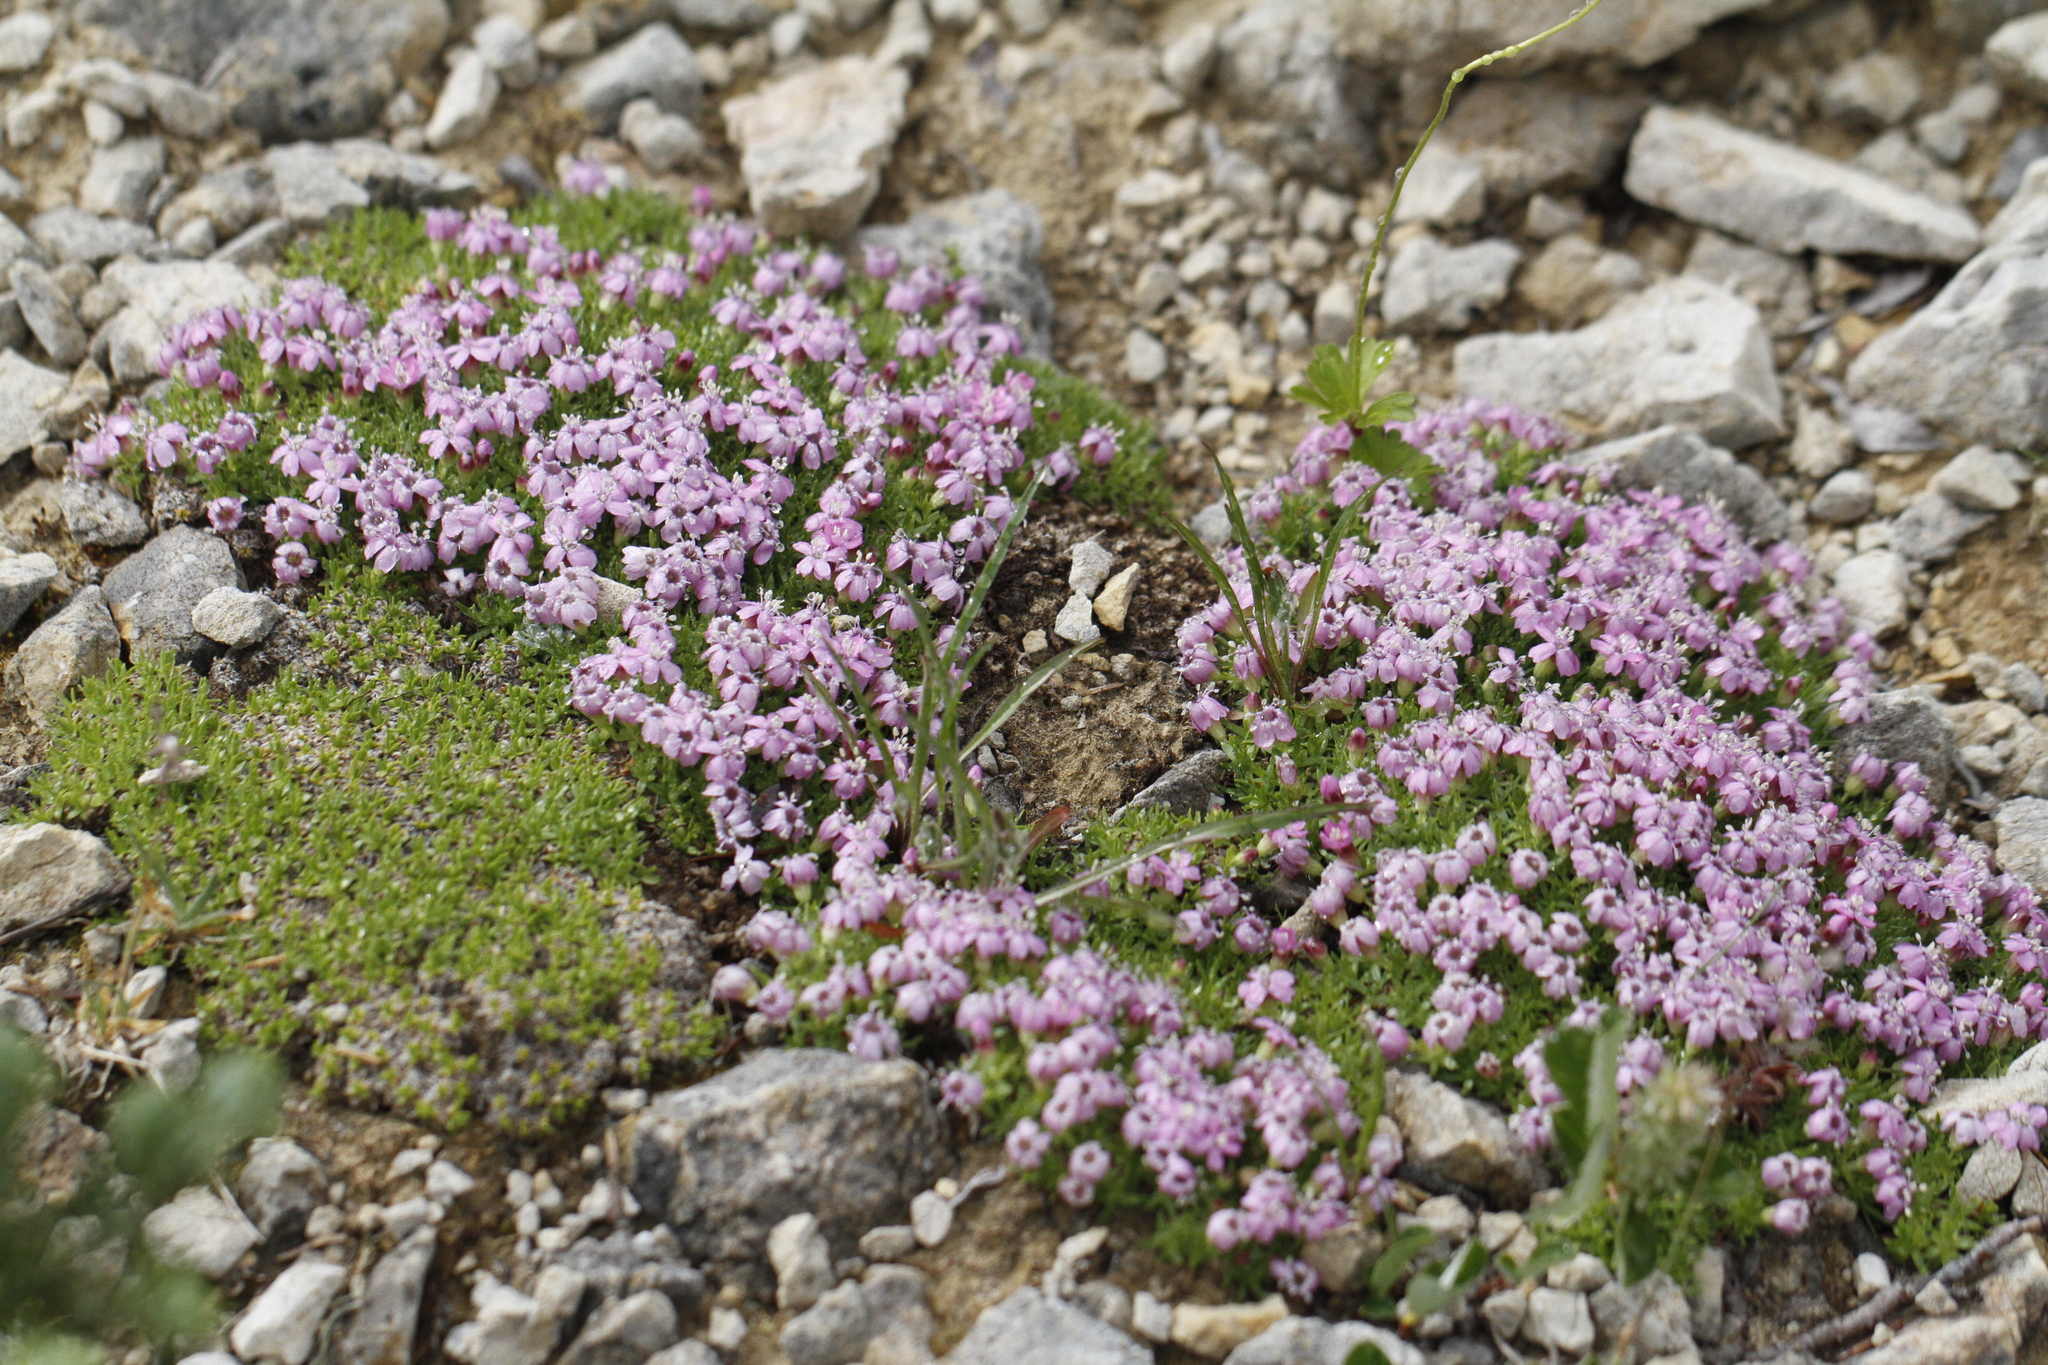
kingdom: Plantae
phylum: Tracheophyta
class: Magnoliopsida
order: Caryophyllales
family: Caryophyllaceae
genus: Silene
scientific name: Silene acaulis
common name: Moss campion
